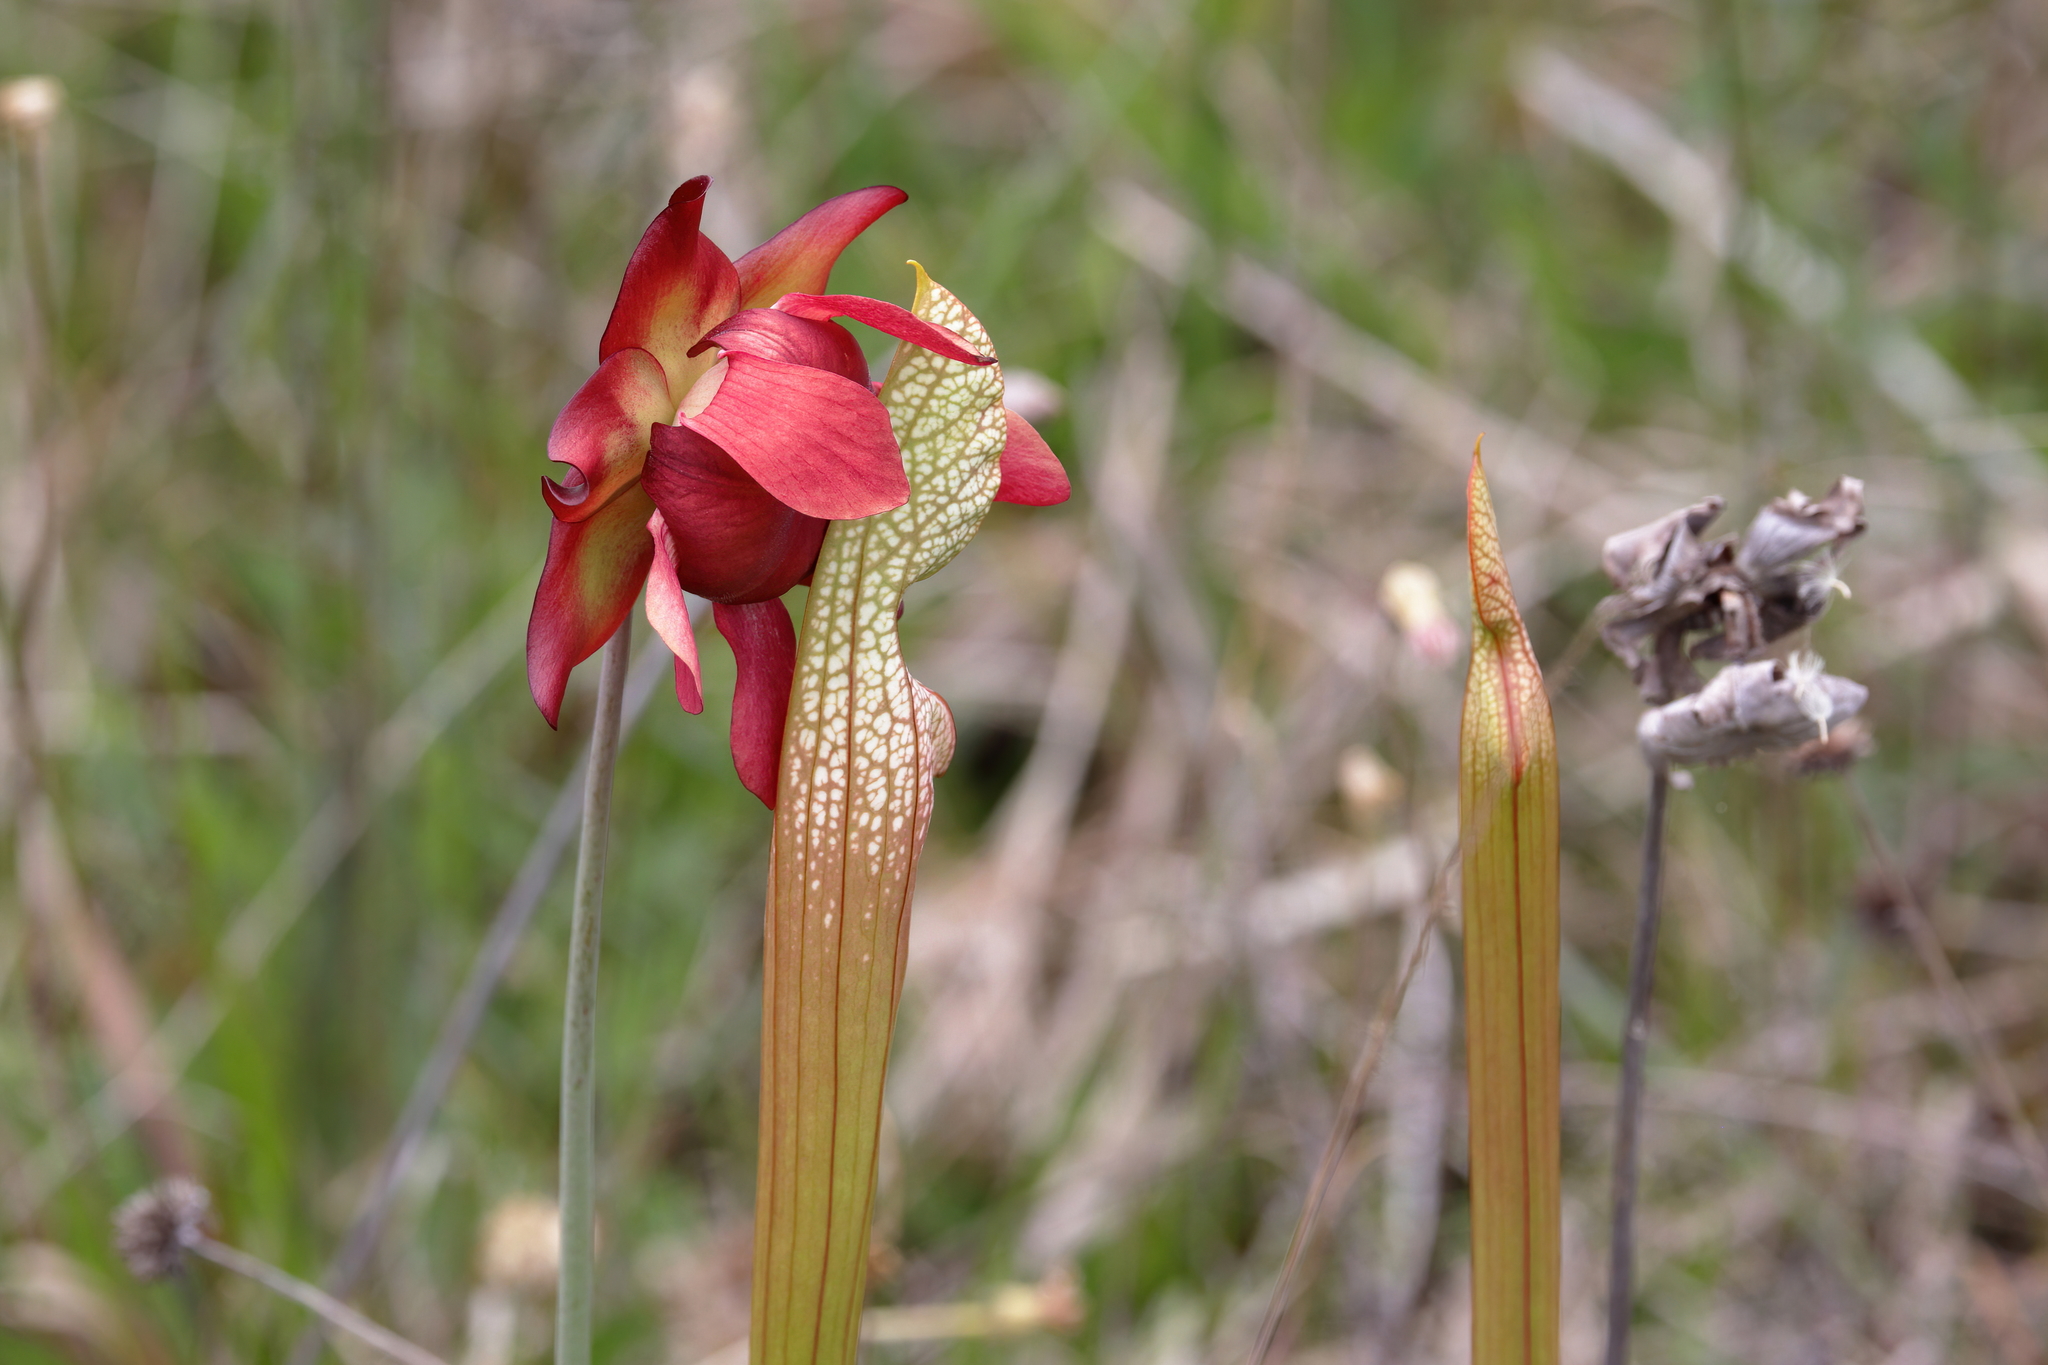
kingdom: Plantae
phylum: Tracheophyta
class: Magnoliopsida
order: Ericales
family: Sarraceniaceae
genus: Sarracenia
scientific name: Sarracenia leucophylla
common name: Purple trumpetleaf
